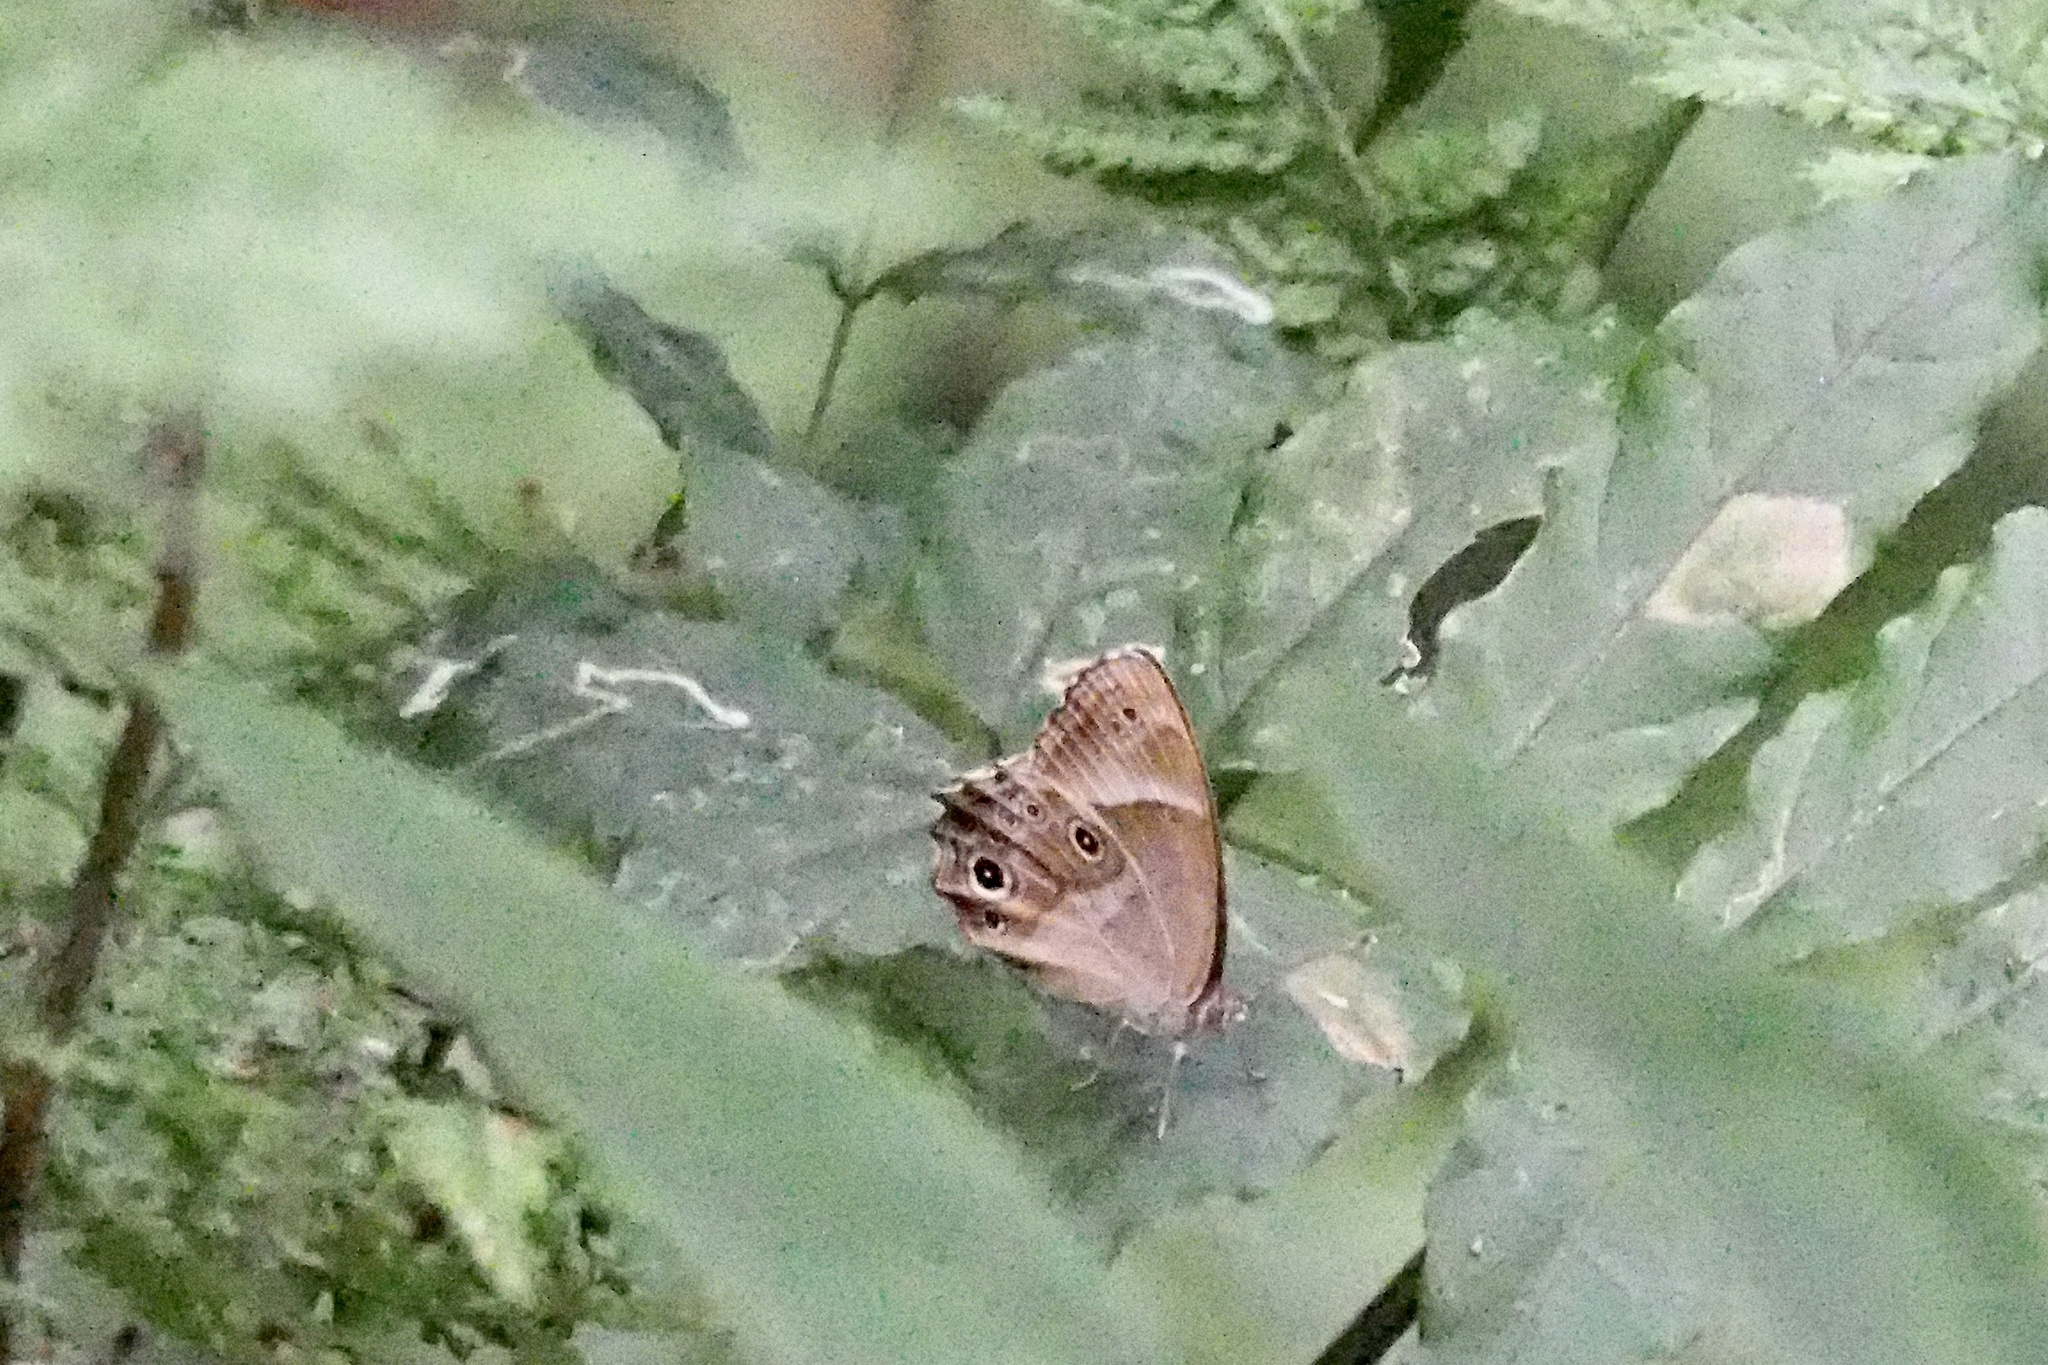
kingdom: Animalia
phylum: Arthropoda
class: Insecta
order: Lepidoptera
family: Nymphalidae
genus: Lethe
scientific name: Lethe sicelis
